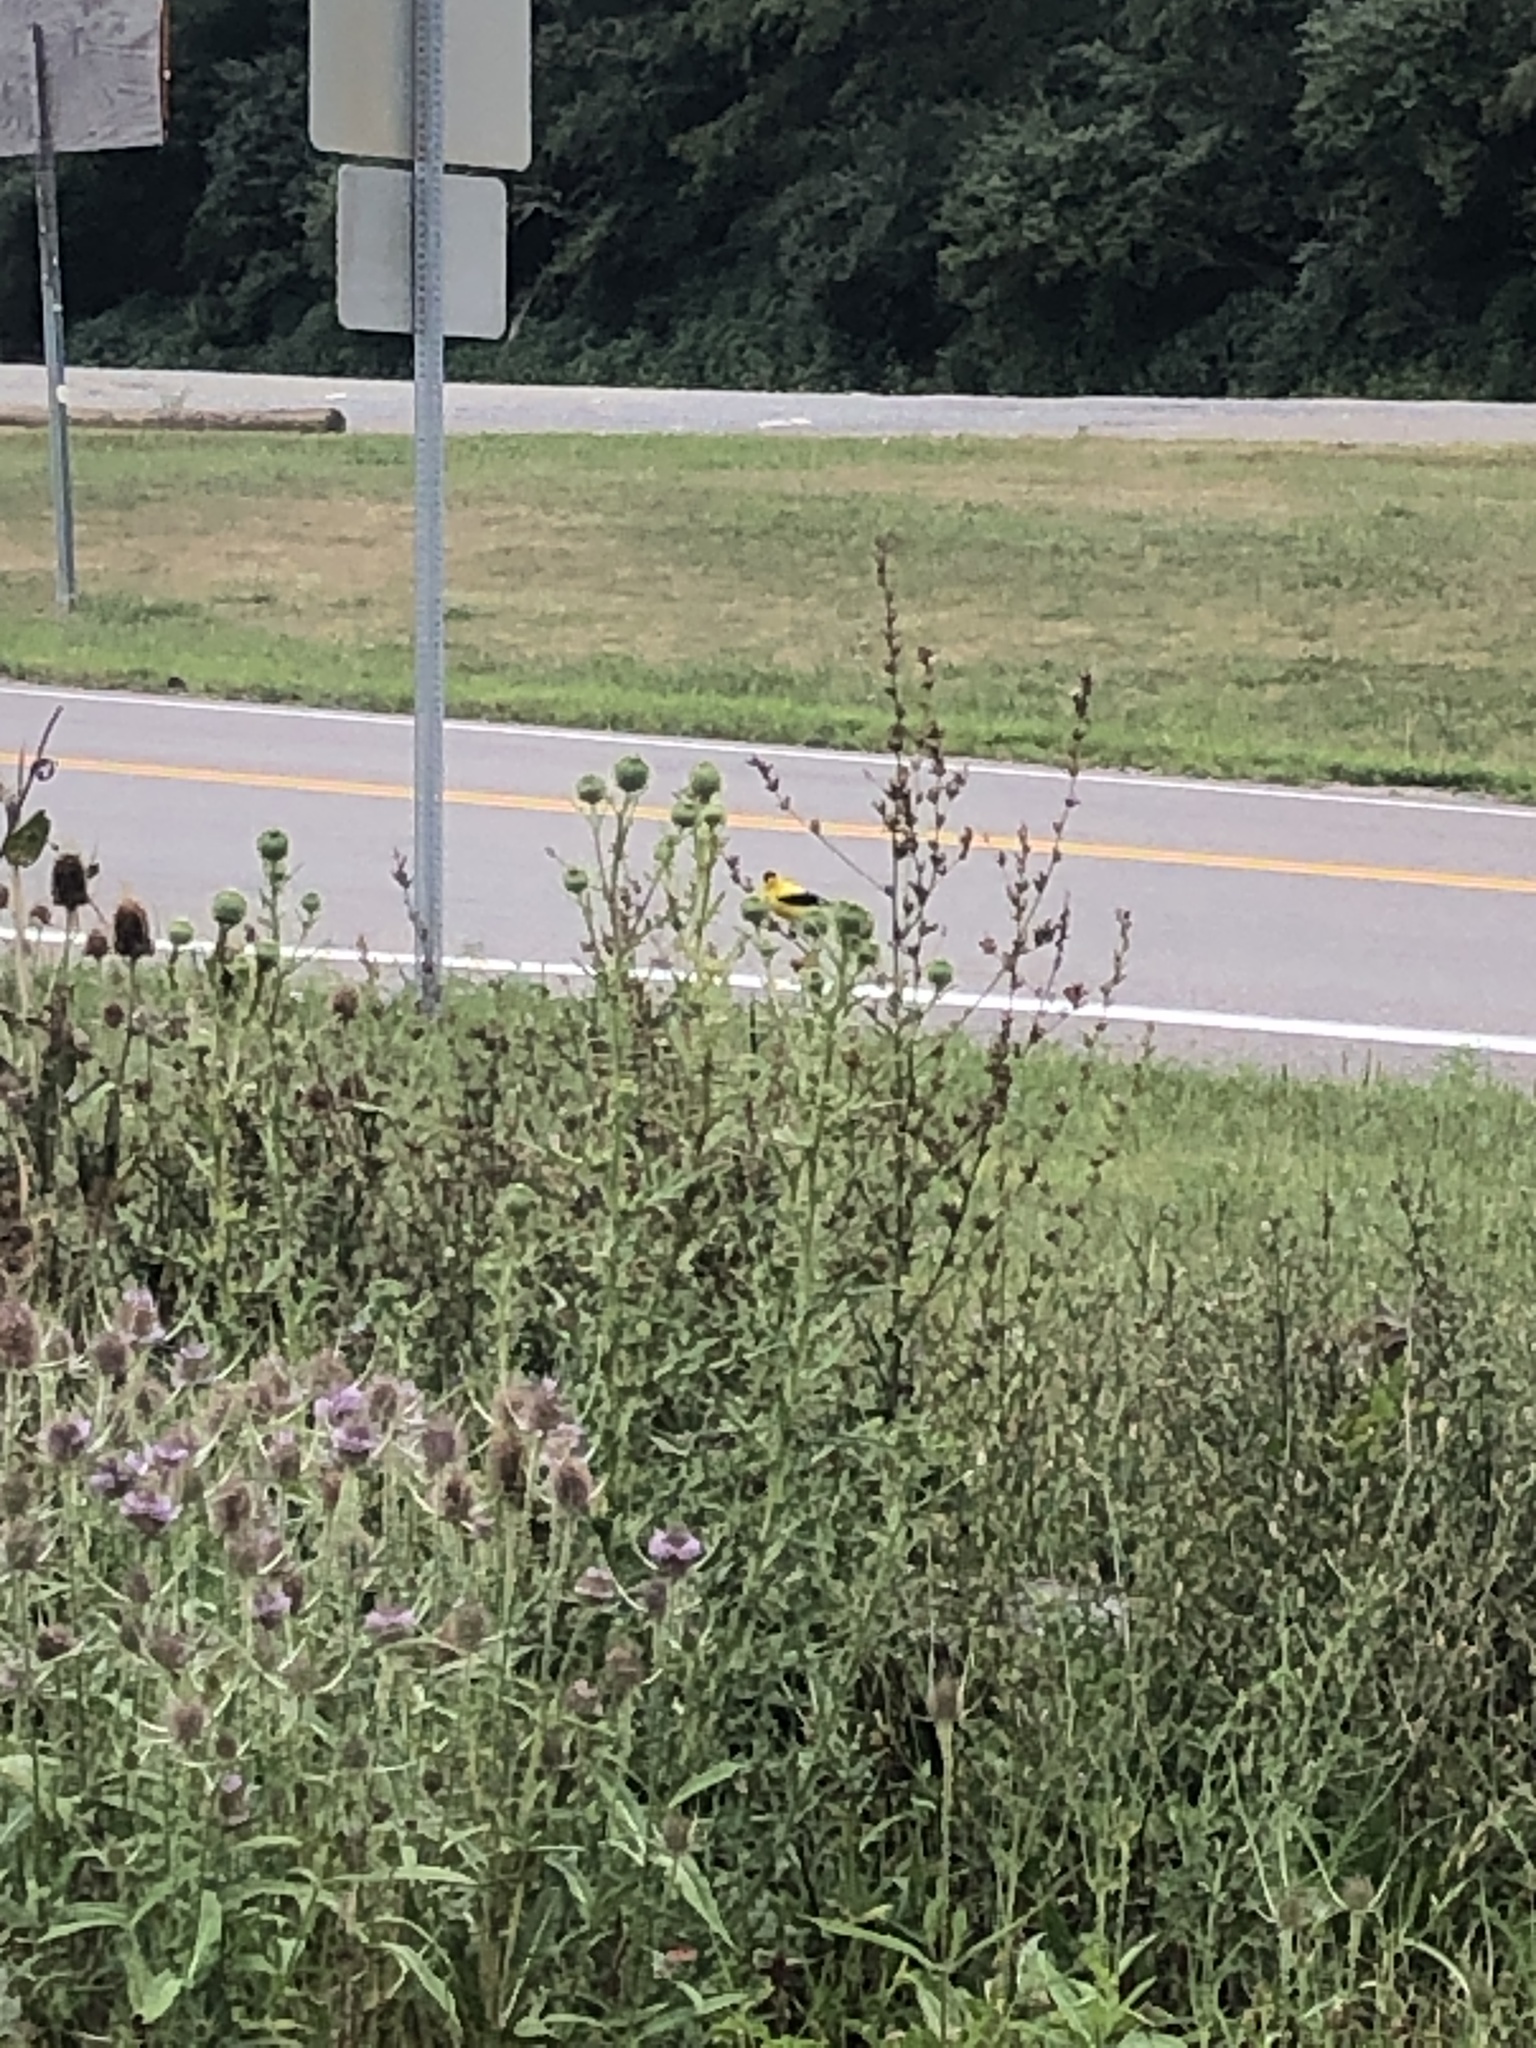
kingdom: Animalia
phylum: Chordata
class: Aves
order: Passeriformes
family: Fringillidae
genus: Spinus
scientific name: Spinus tristis
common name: American goldfinch
